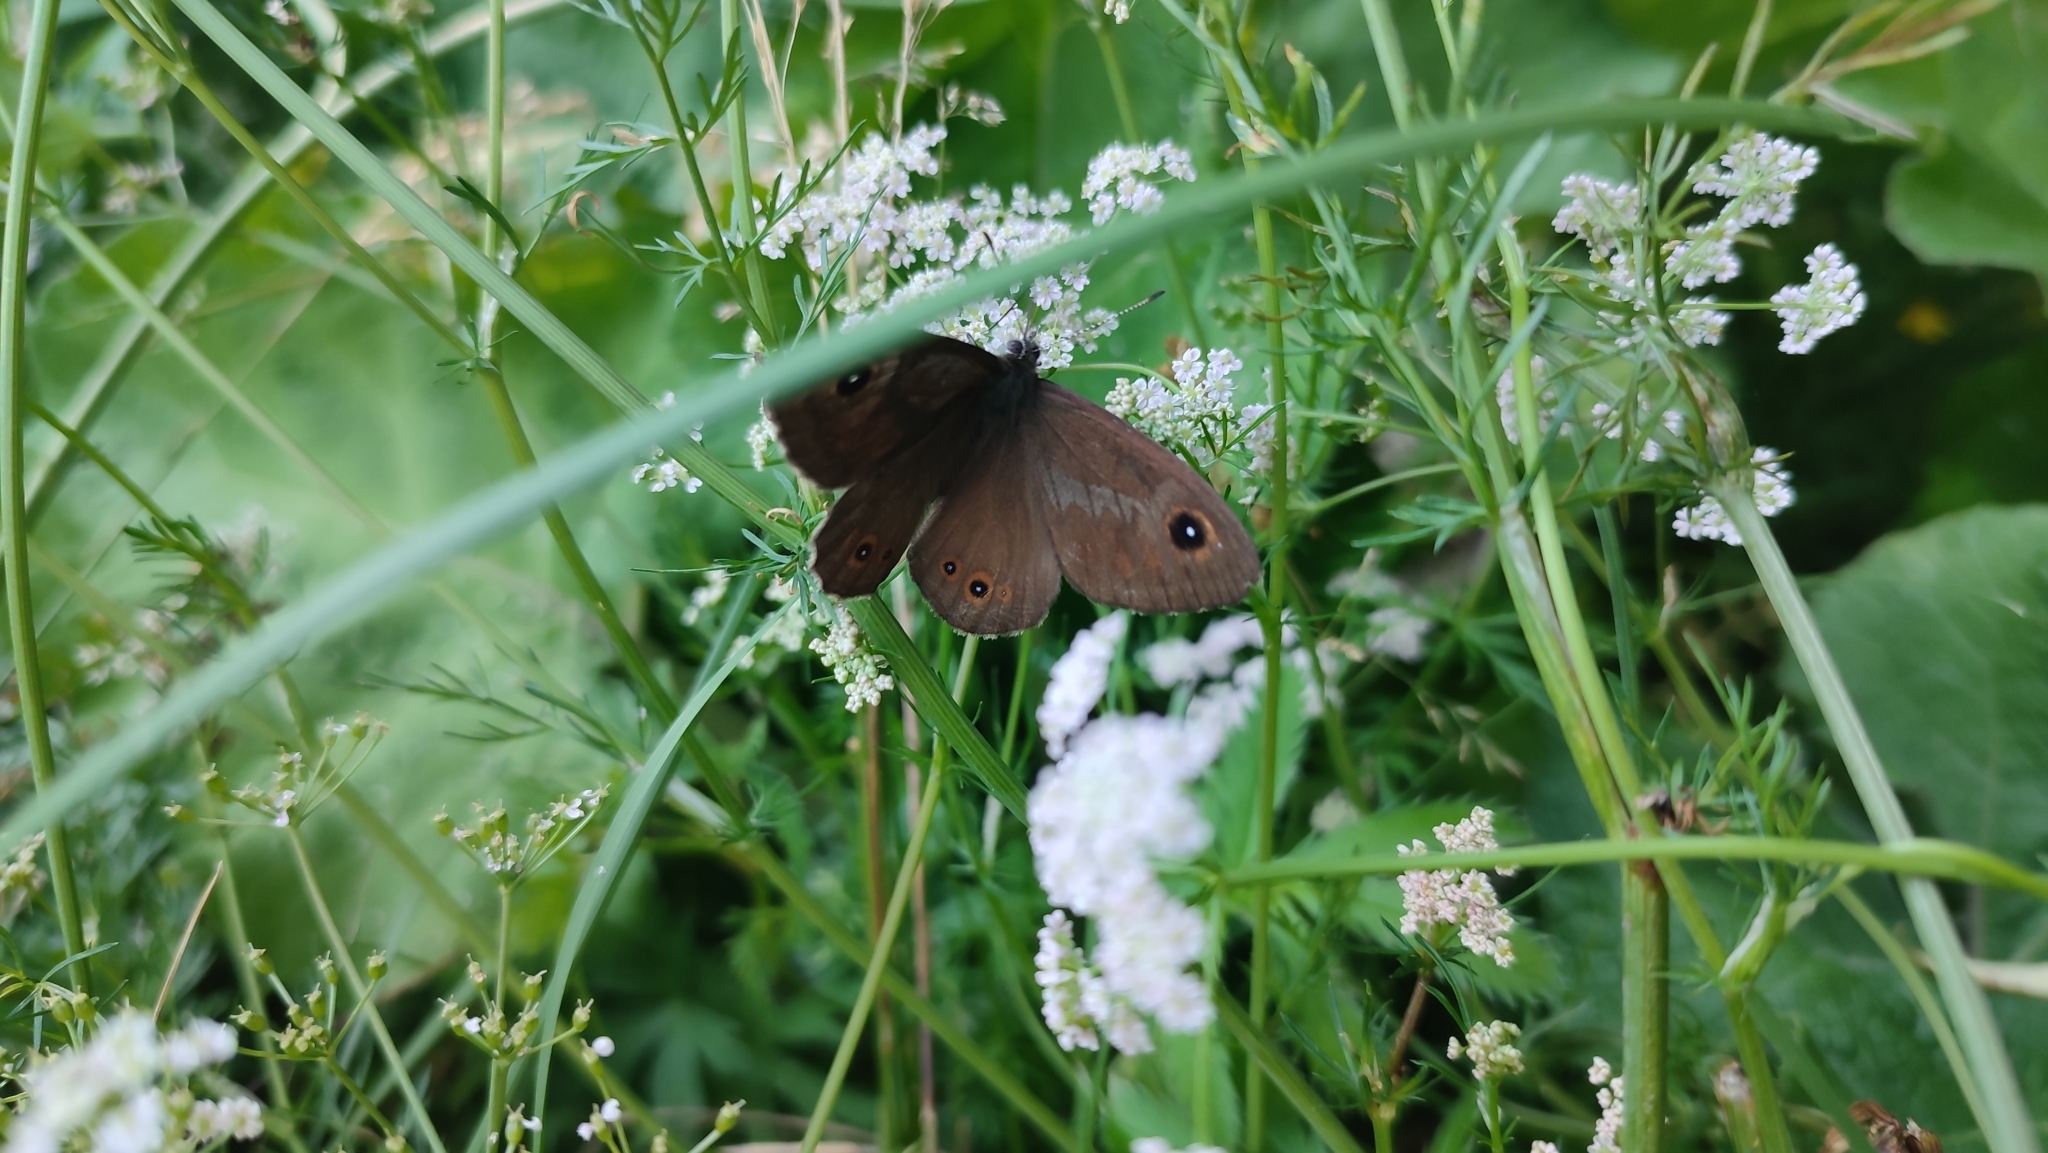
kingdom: Animalia
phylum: Arthropoda
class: Insecta
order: Lepidoptera
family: Nymphalidae
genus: Pararge
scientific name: Pararge Lasiommata maera
